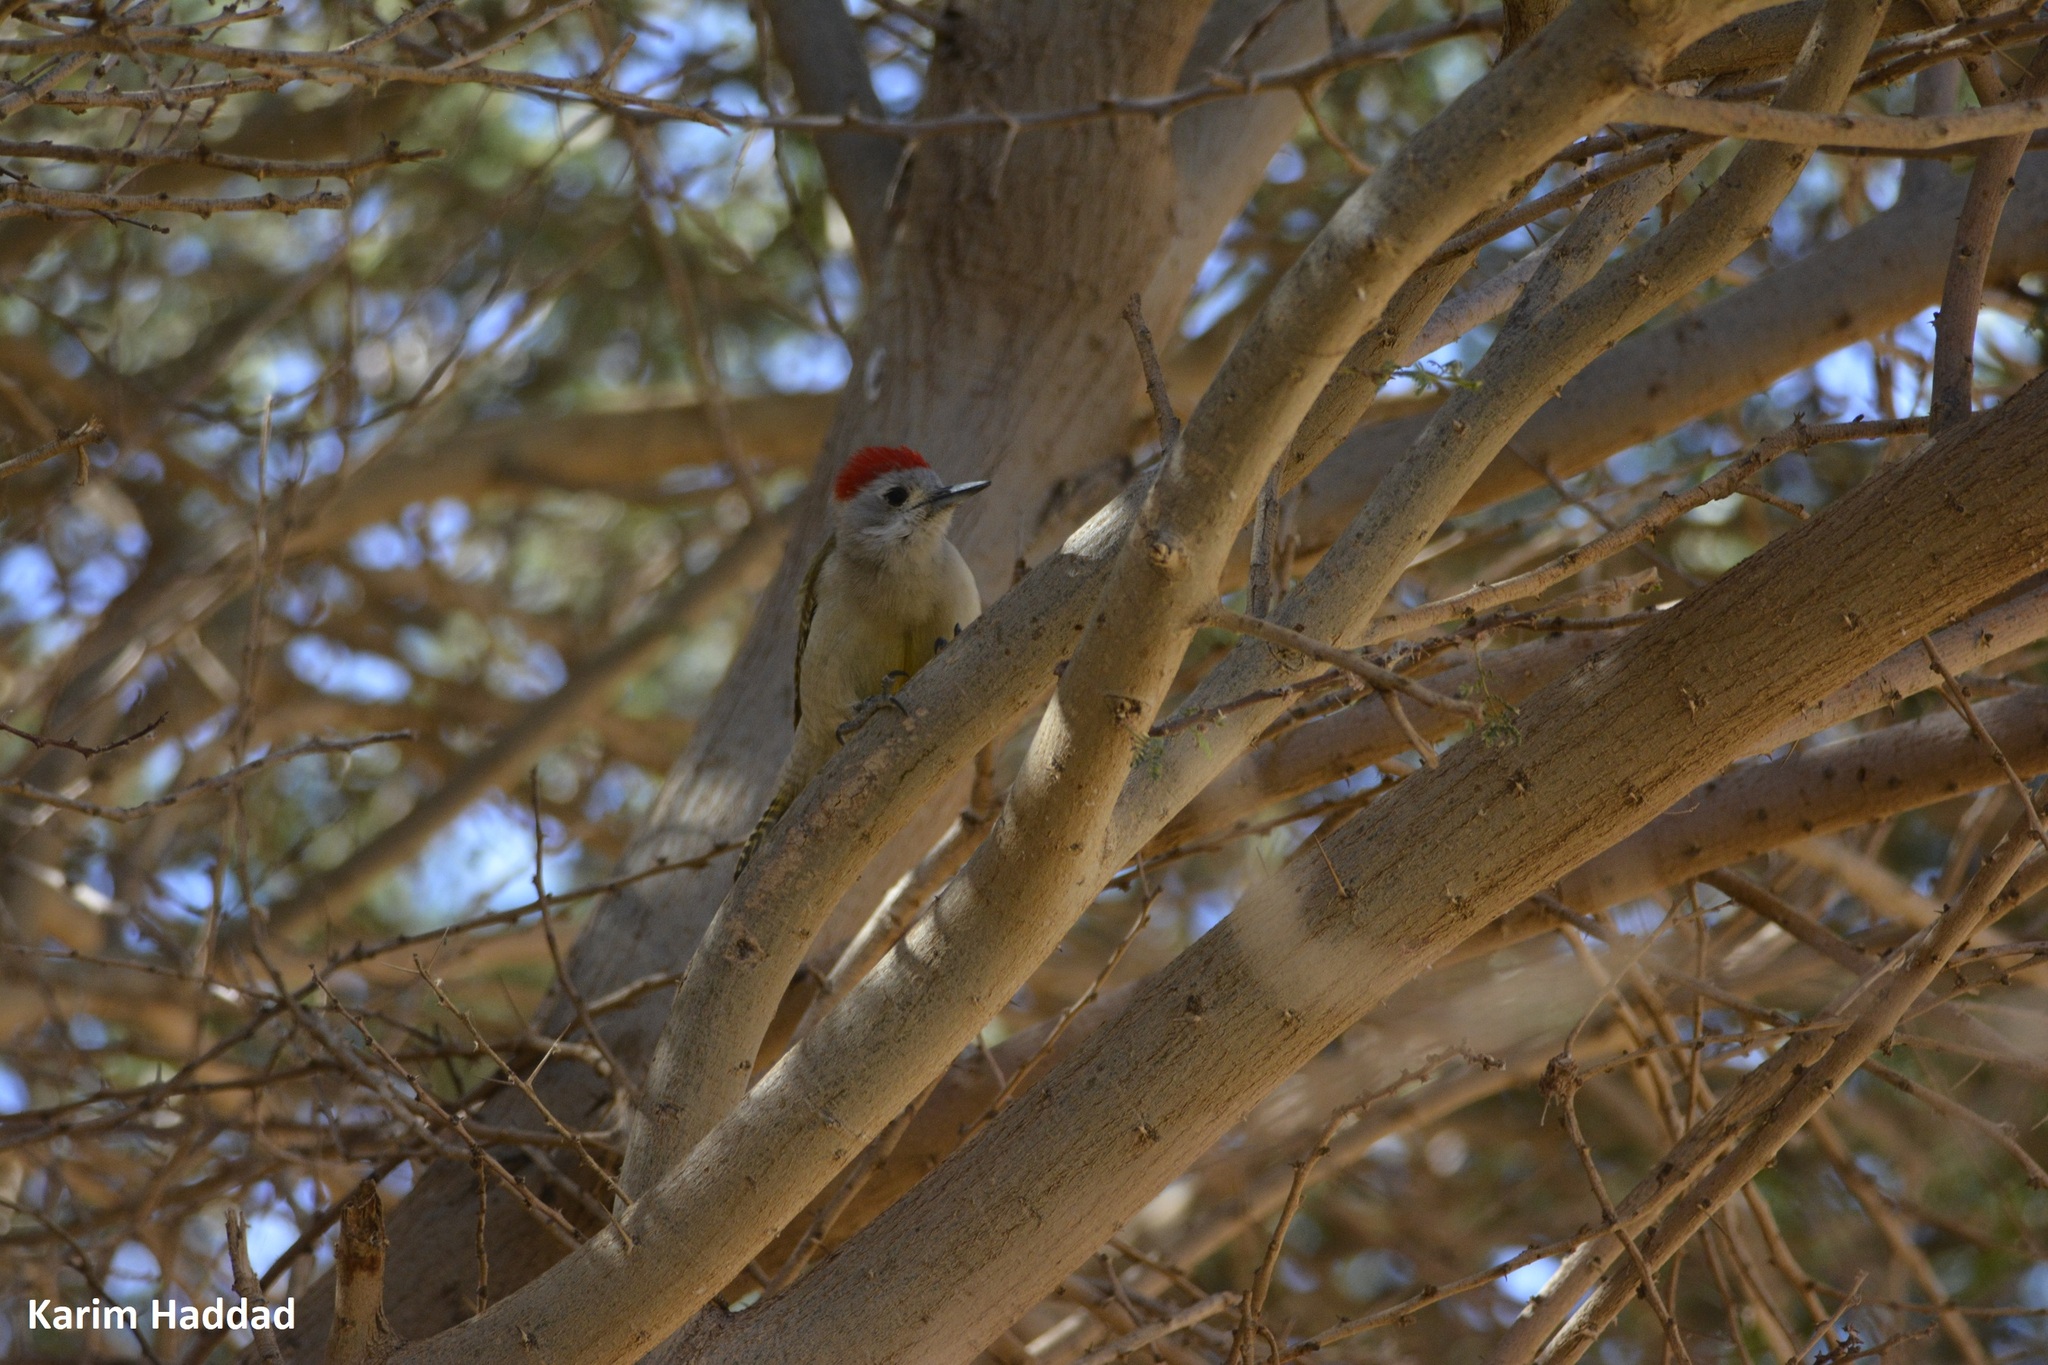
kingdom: Animalia
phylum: Chordata
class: Aves
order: Piciformes
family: Picidae
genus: Dendropicos
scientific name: Dendropicos goertae
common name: African grey woodpecker
